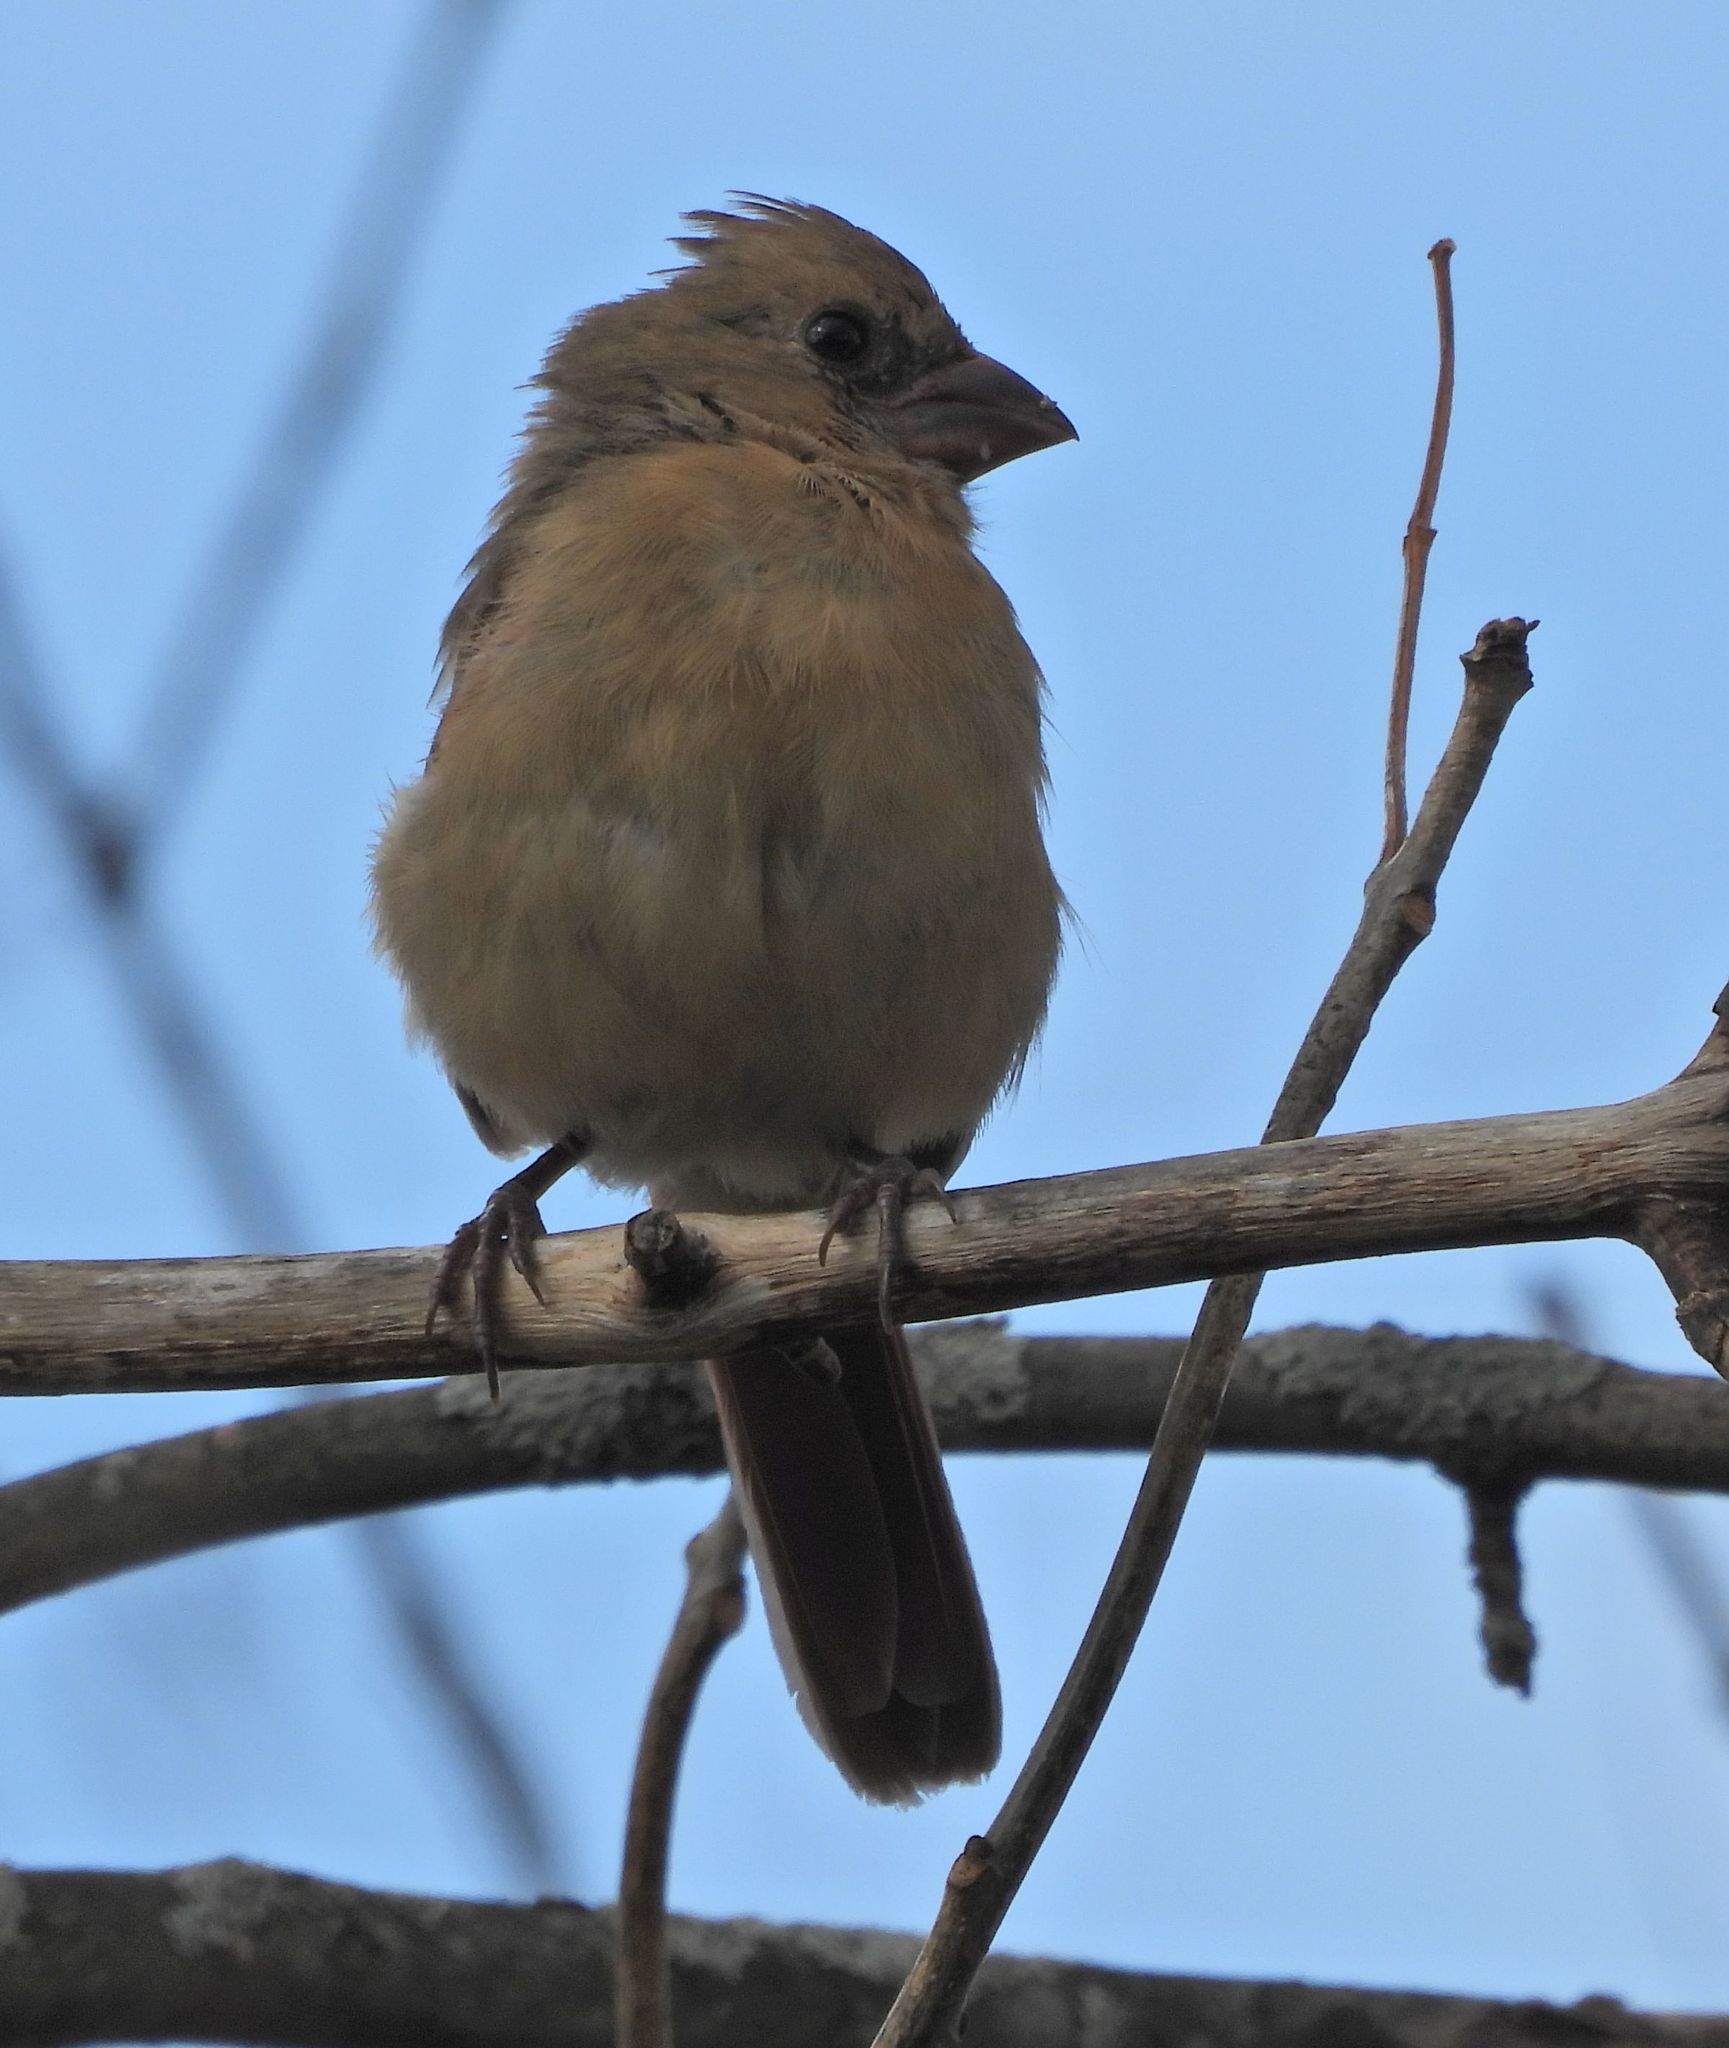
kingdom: Animalia
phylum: Chordata
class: Aves
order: Passeriformes
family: Cardinalidae
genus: Cardinalis
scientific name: Cardinalis cardinalis
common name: Northern cardinal
